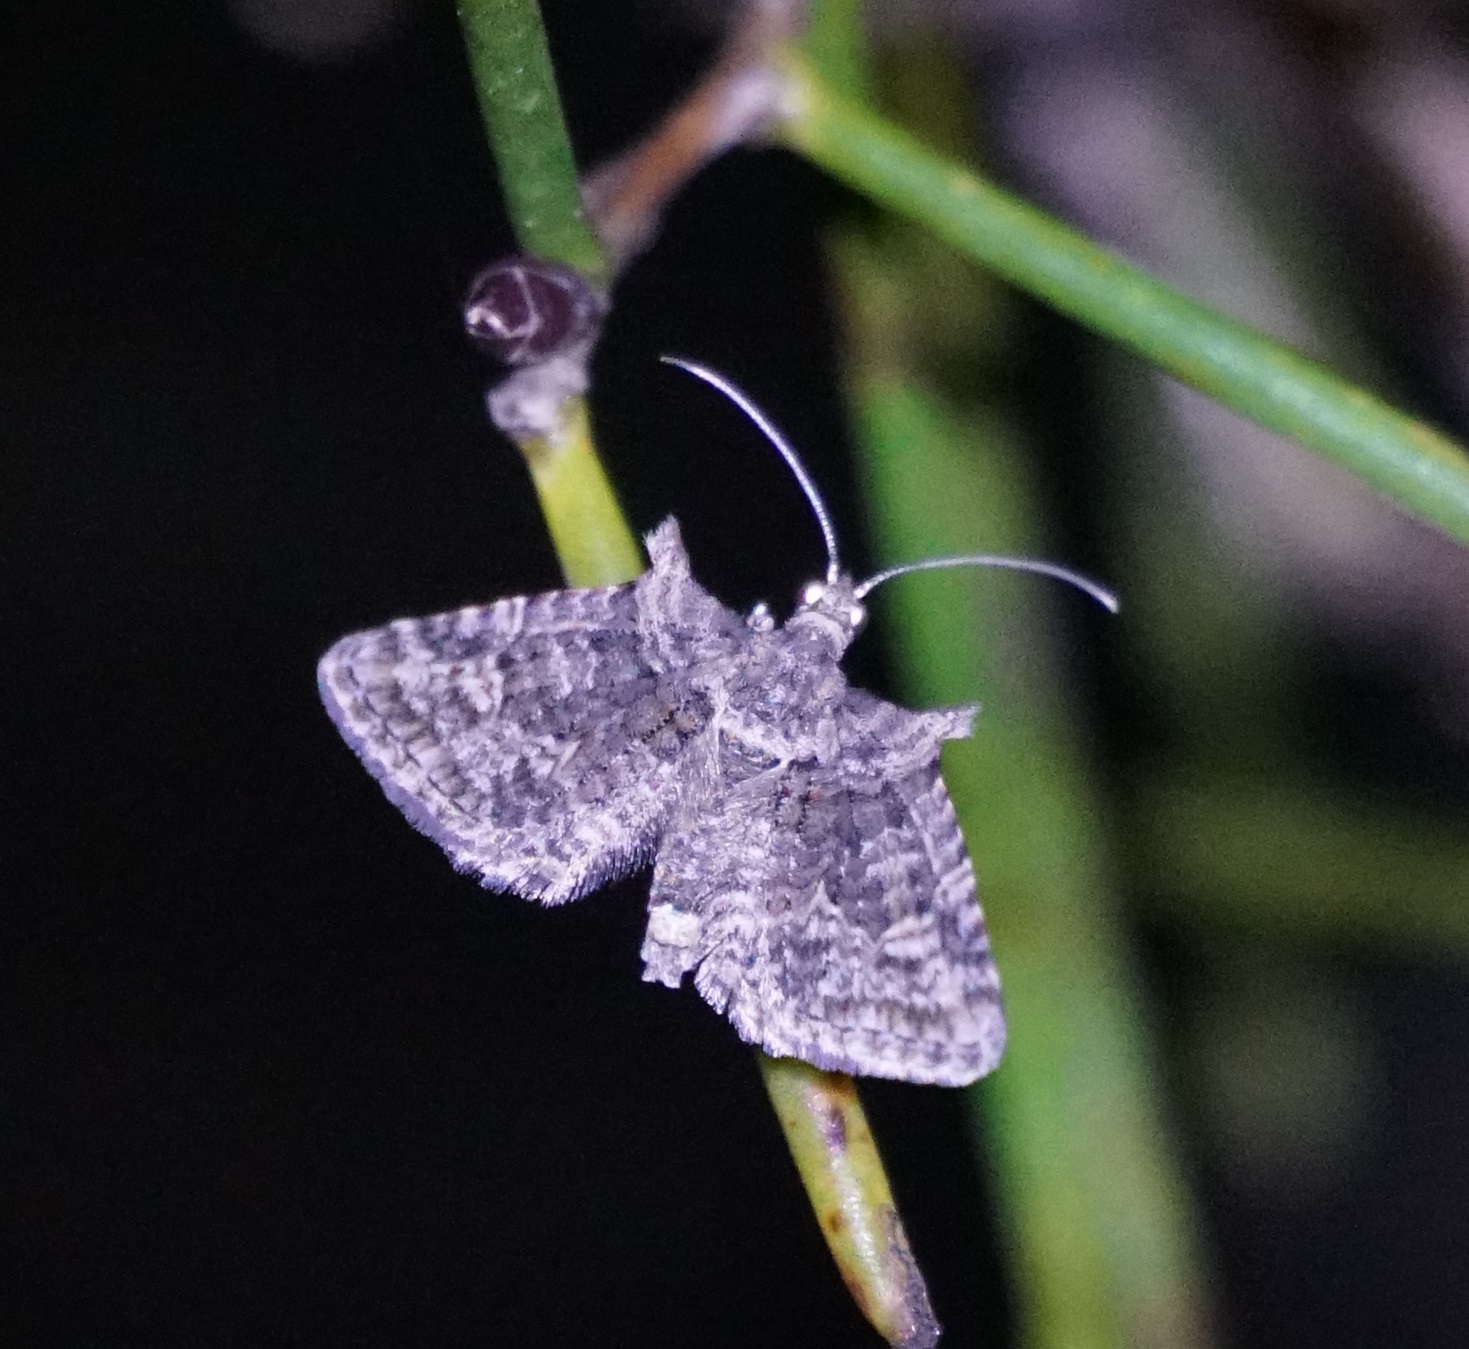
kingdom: Animalia
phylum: Arthropoda
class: Insecta
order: Lepidoptera
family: Geometridae
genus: Phrissogonus
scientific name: Phrissogonus laticostata
